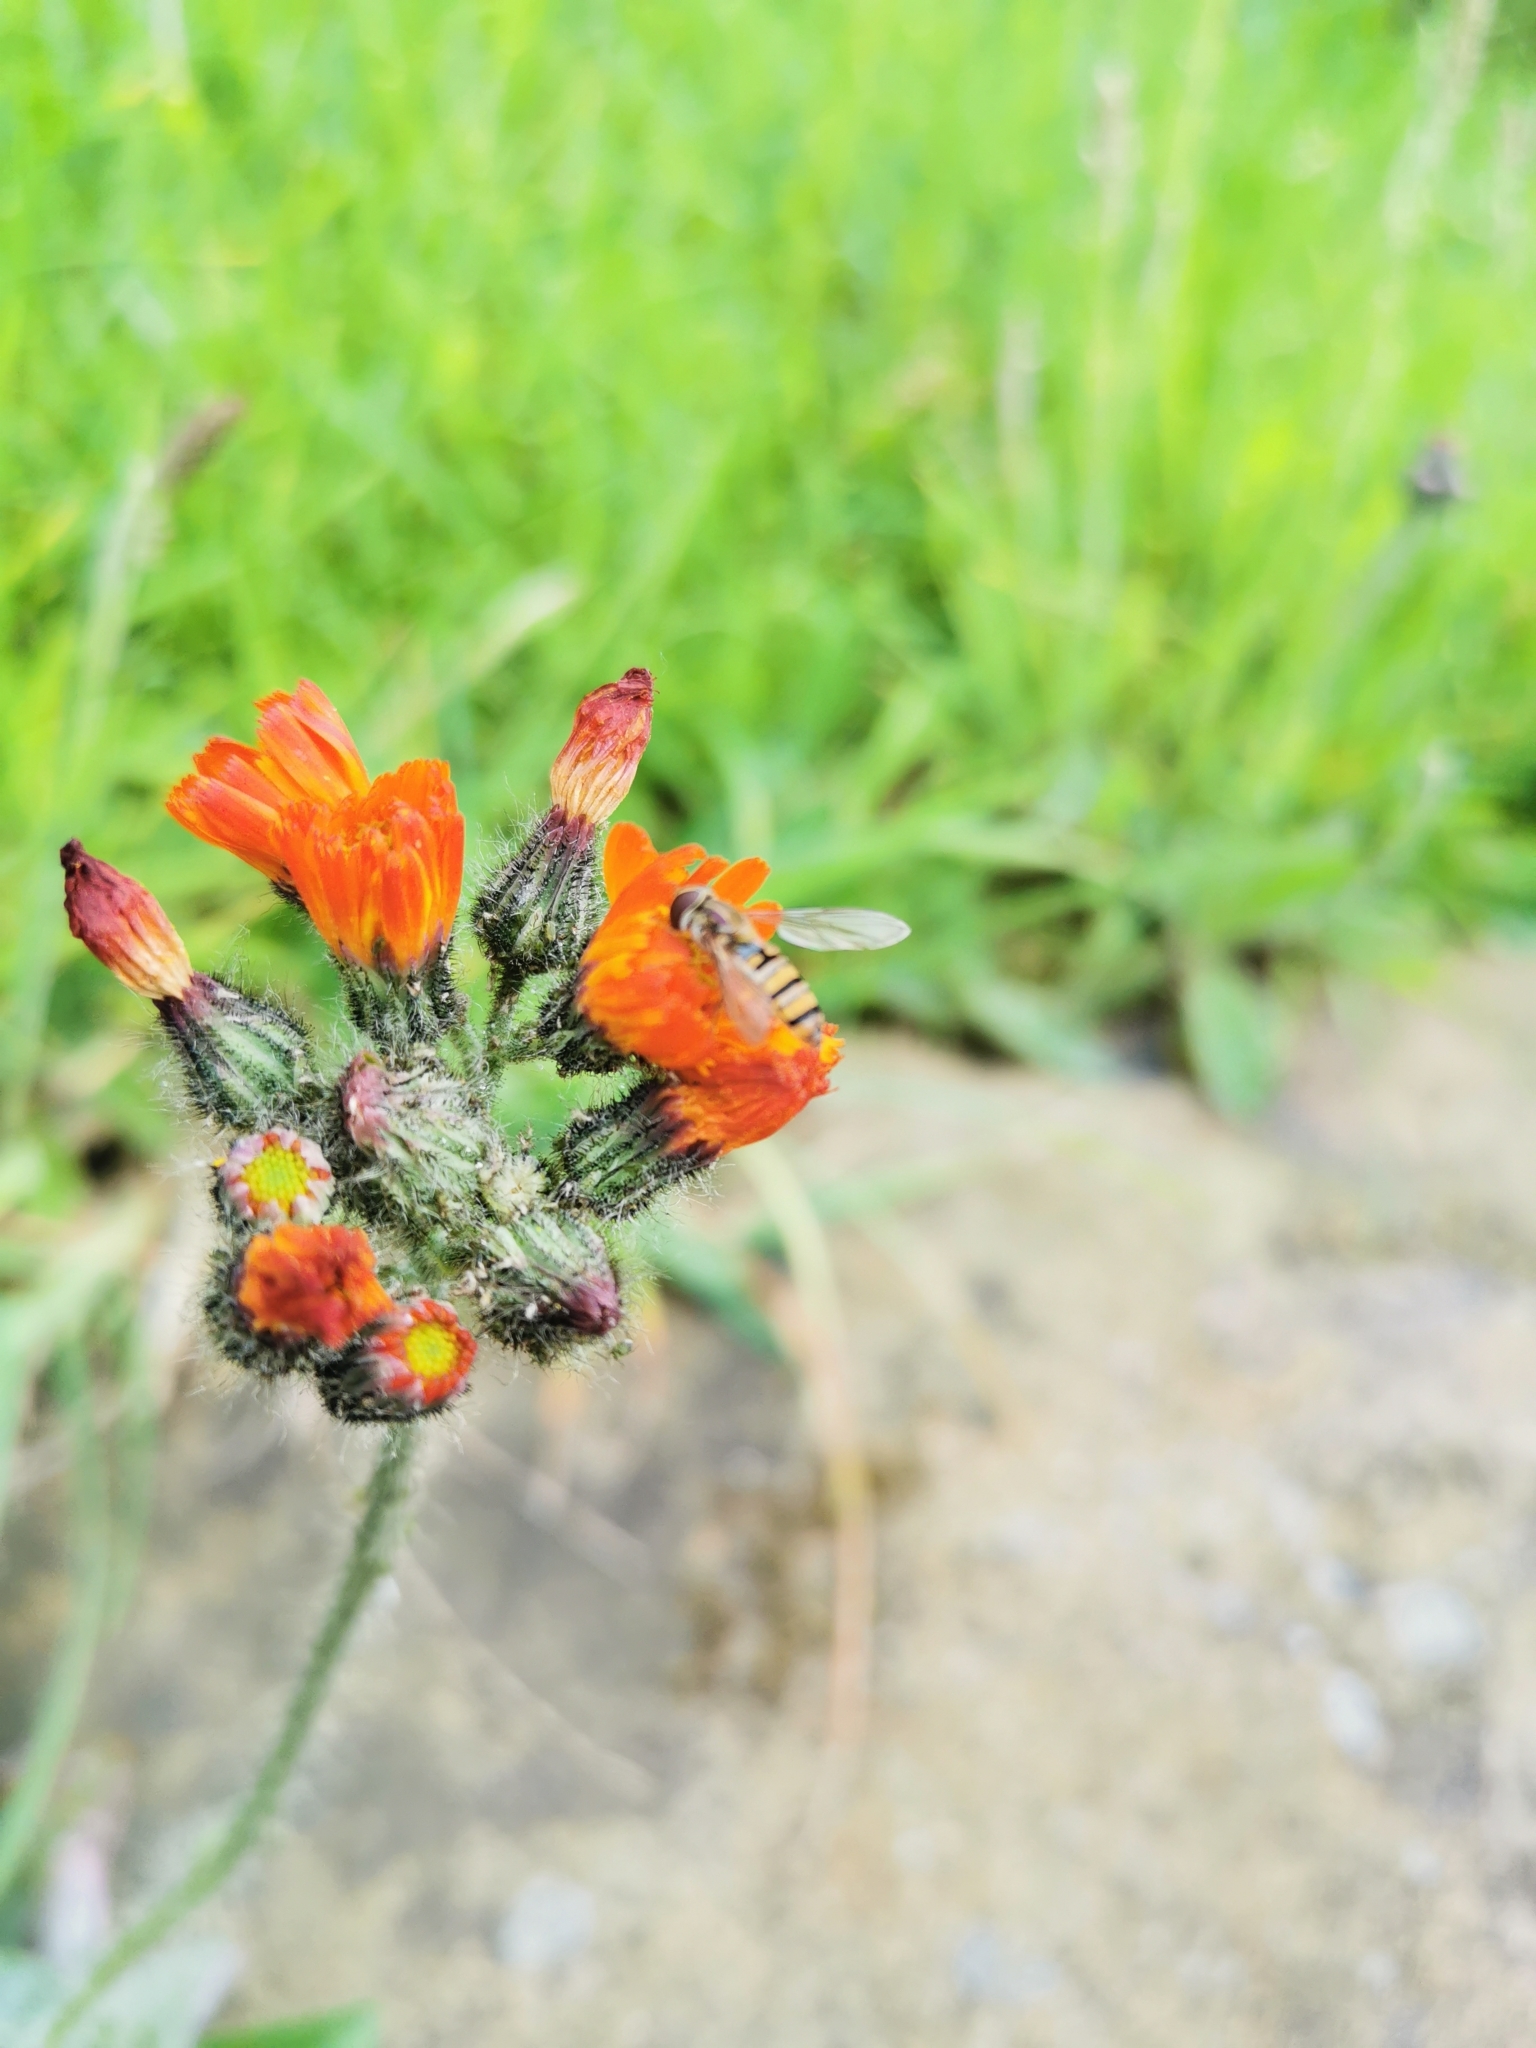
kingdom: Animalia
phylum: Arthropoda
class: Insecta
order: Diptera
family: Syrphidae
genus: Episyrphus
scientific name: Episyrphus balteatus
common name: Marmalade hoverfly
